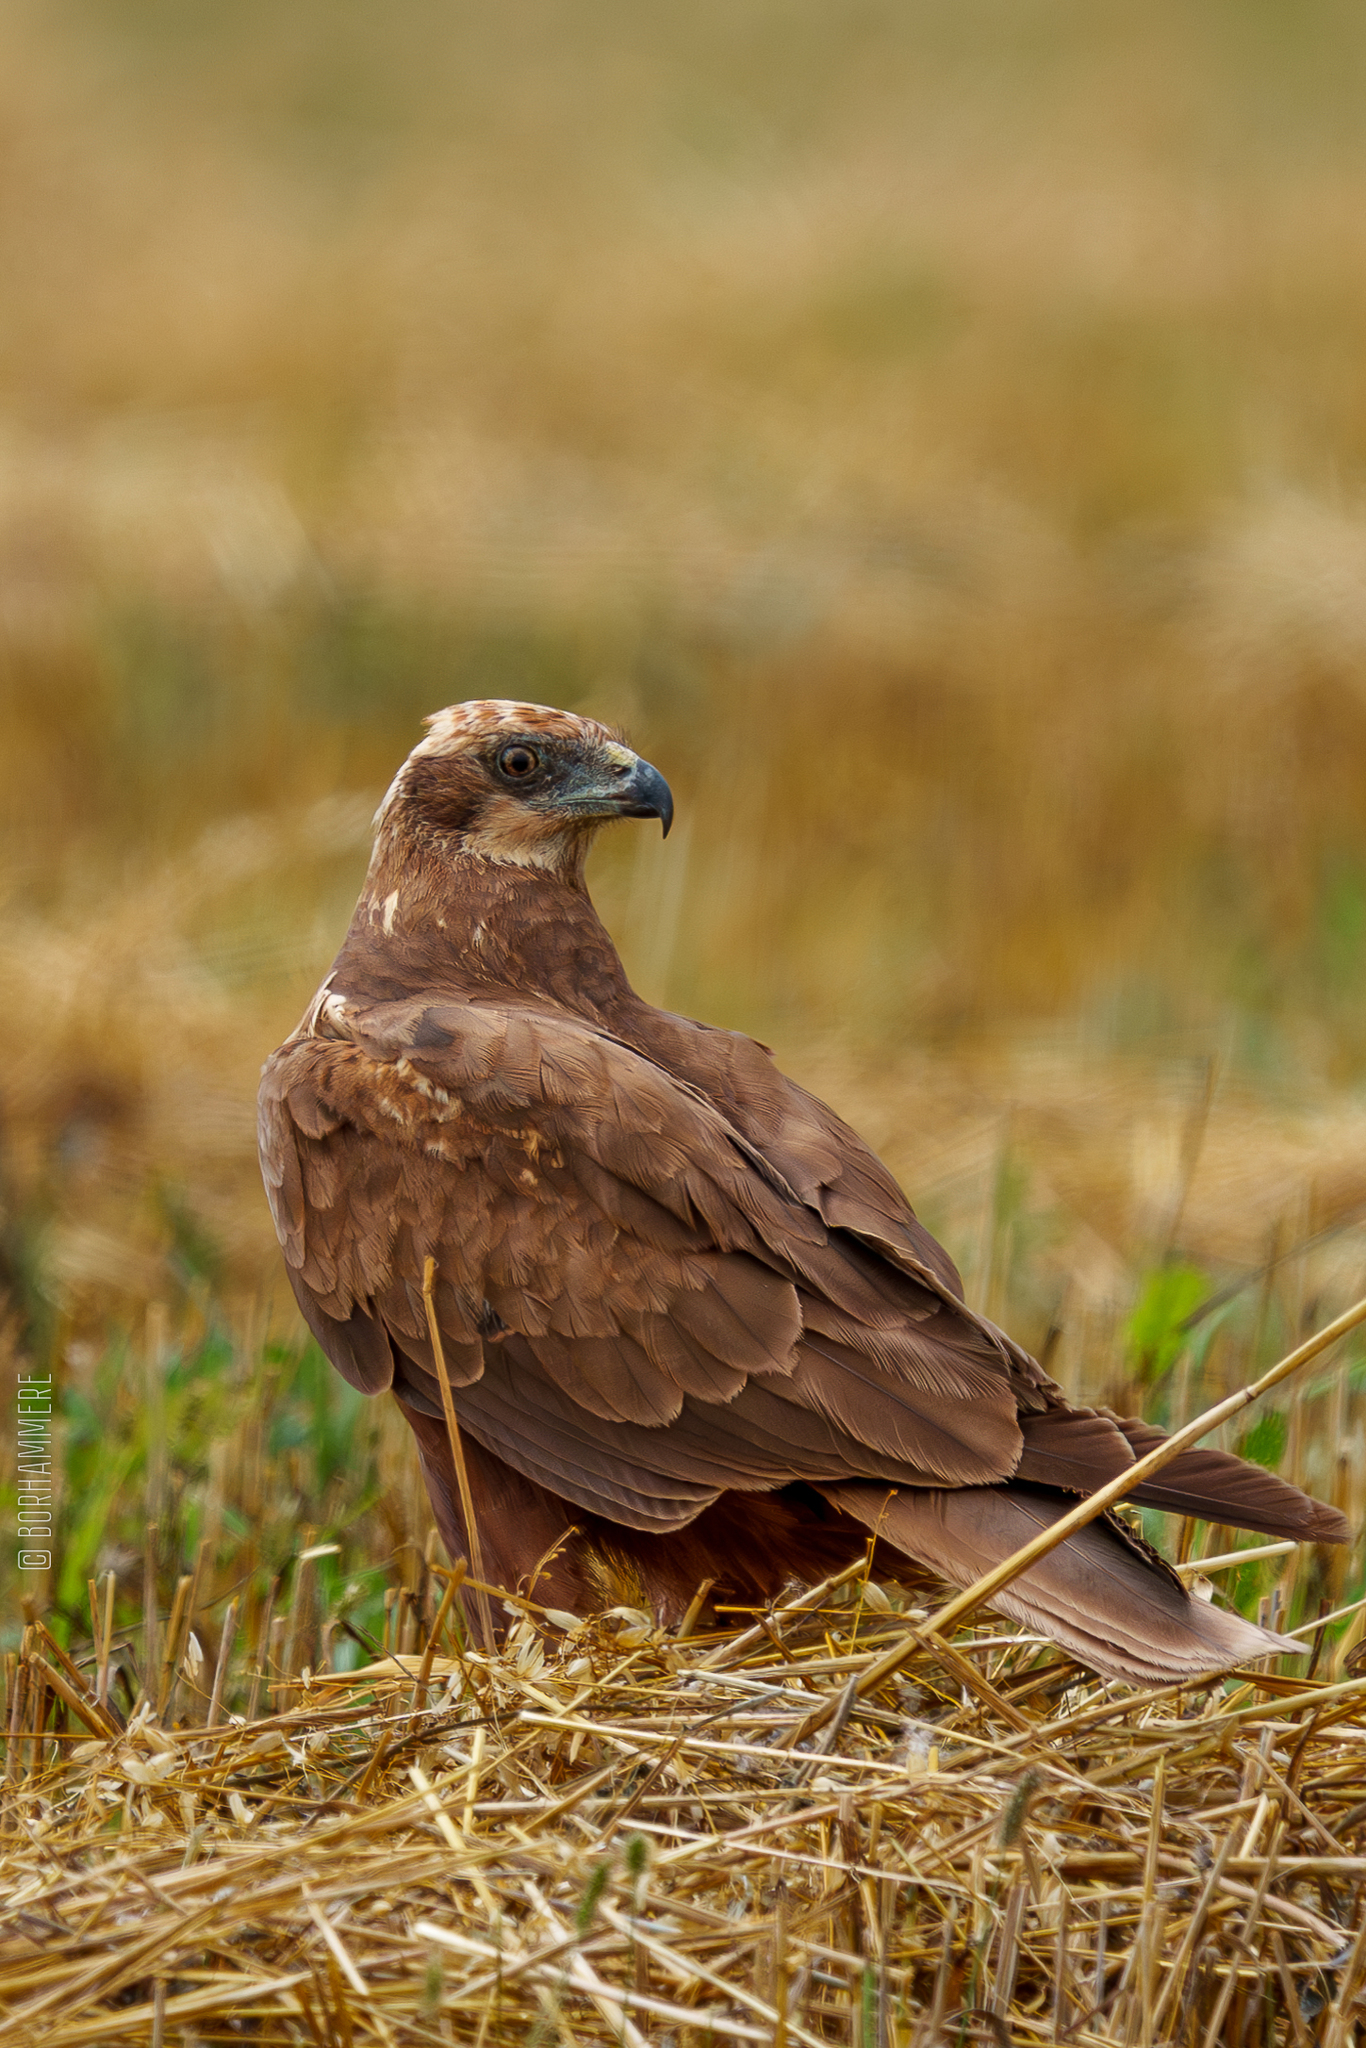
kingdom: Animalia
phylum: Chordata
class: Aves
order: Accipitriformes
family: Accipitridae
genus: Circus
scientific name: Circus aeruginosus
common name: Western marsh harrier
